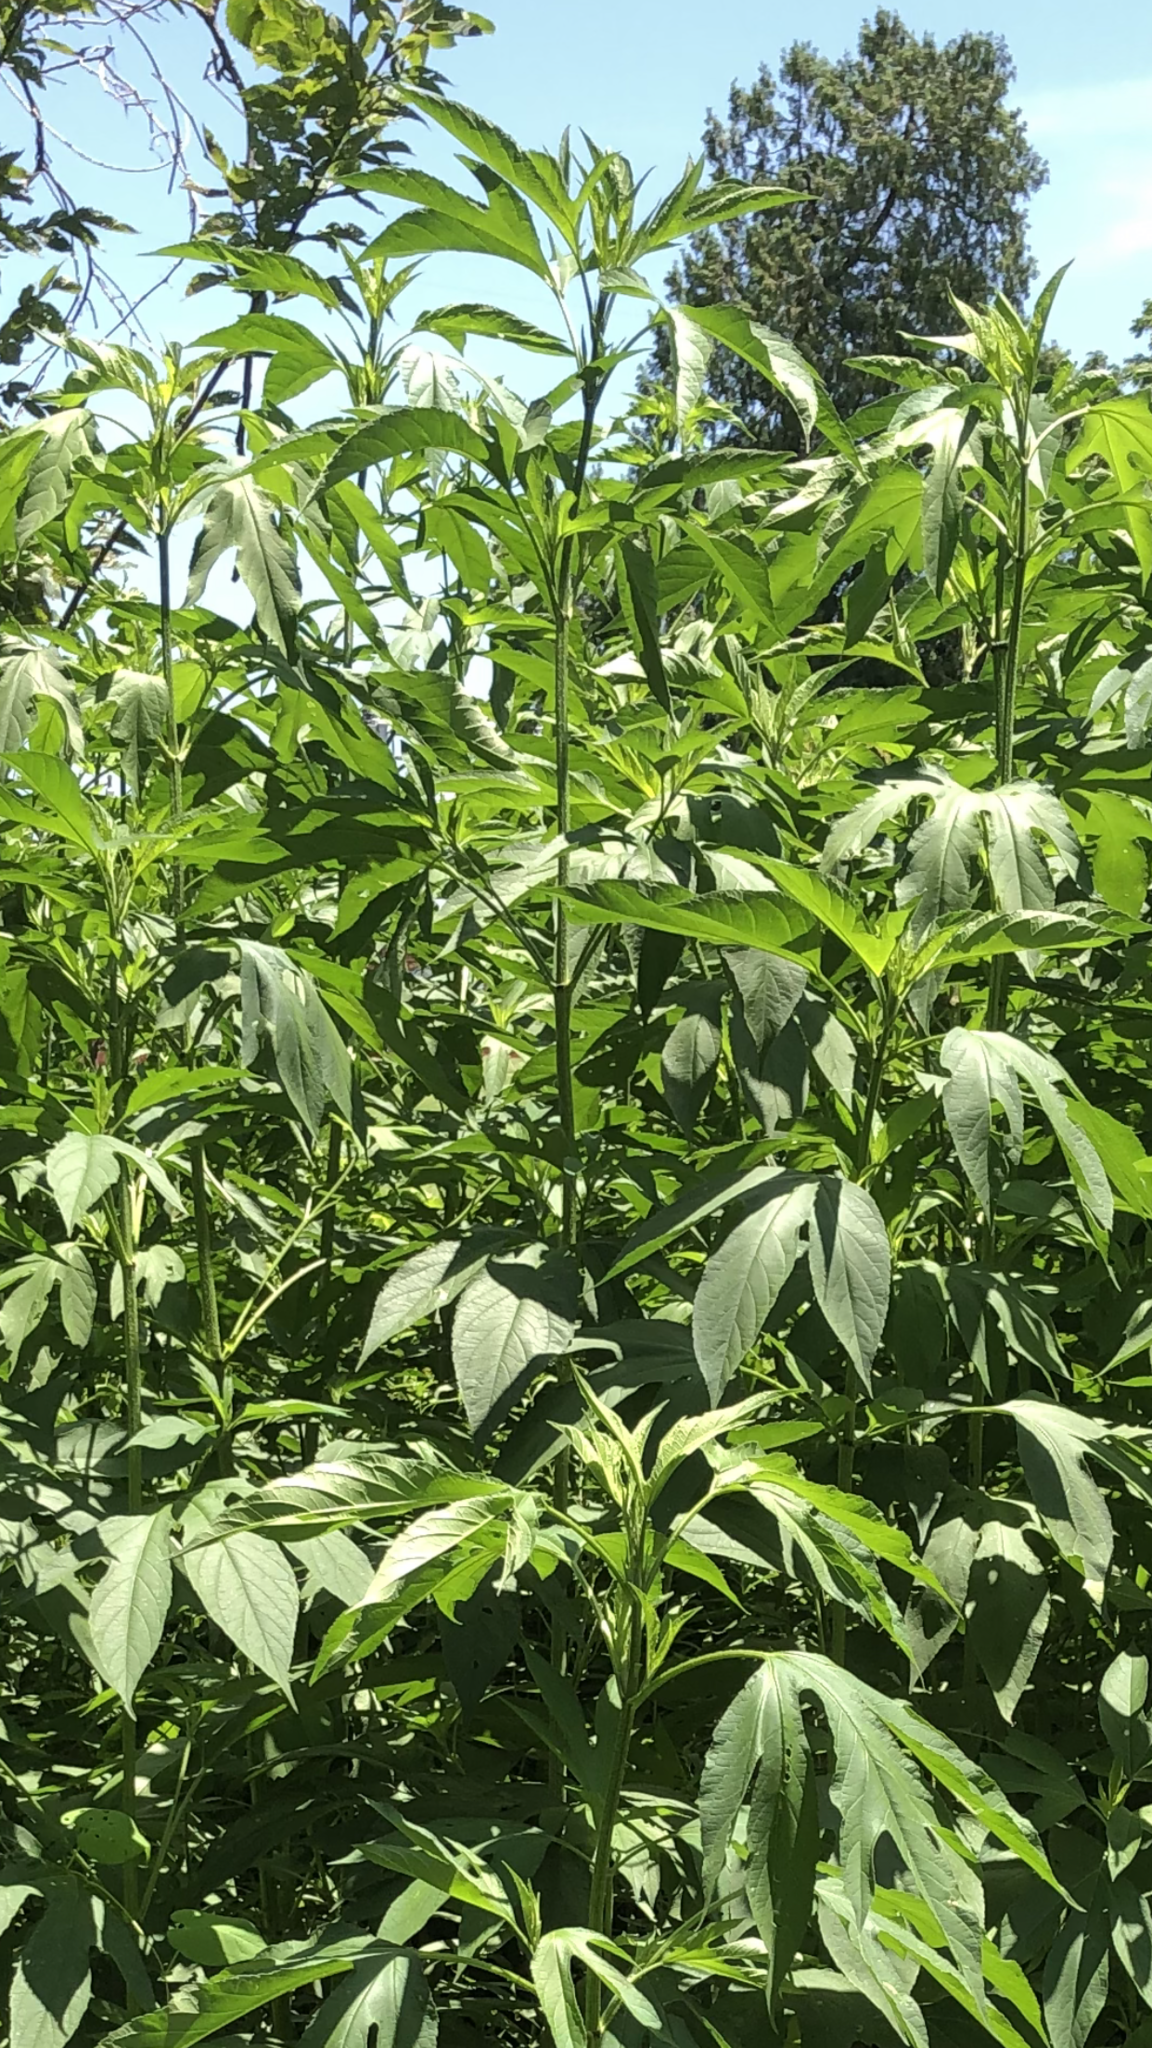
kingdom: Plantae
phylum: Tracheophyta
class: Magnoliopsida
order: Asterales
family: Asteraceae
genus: Ambrosia
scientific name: Ambrosia trifida
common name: Giant ragweed
